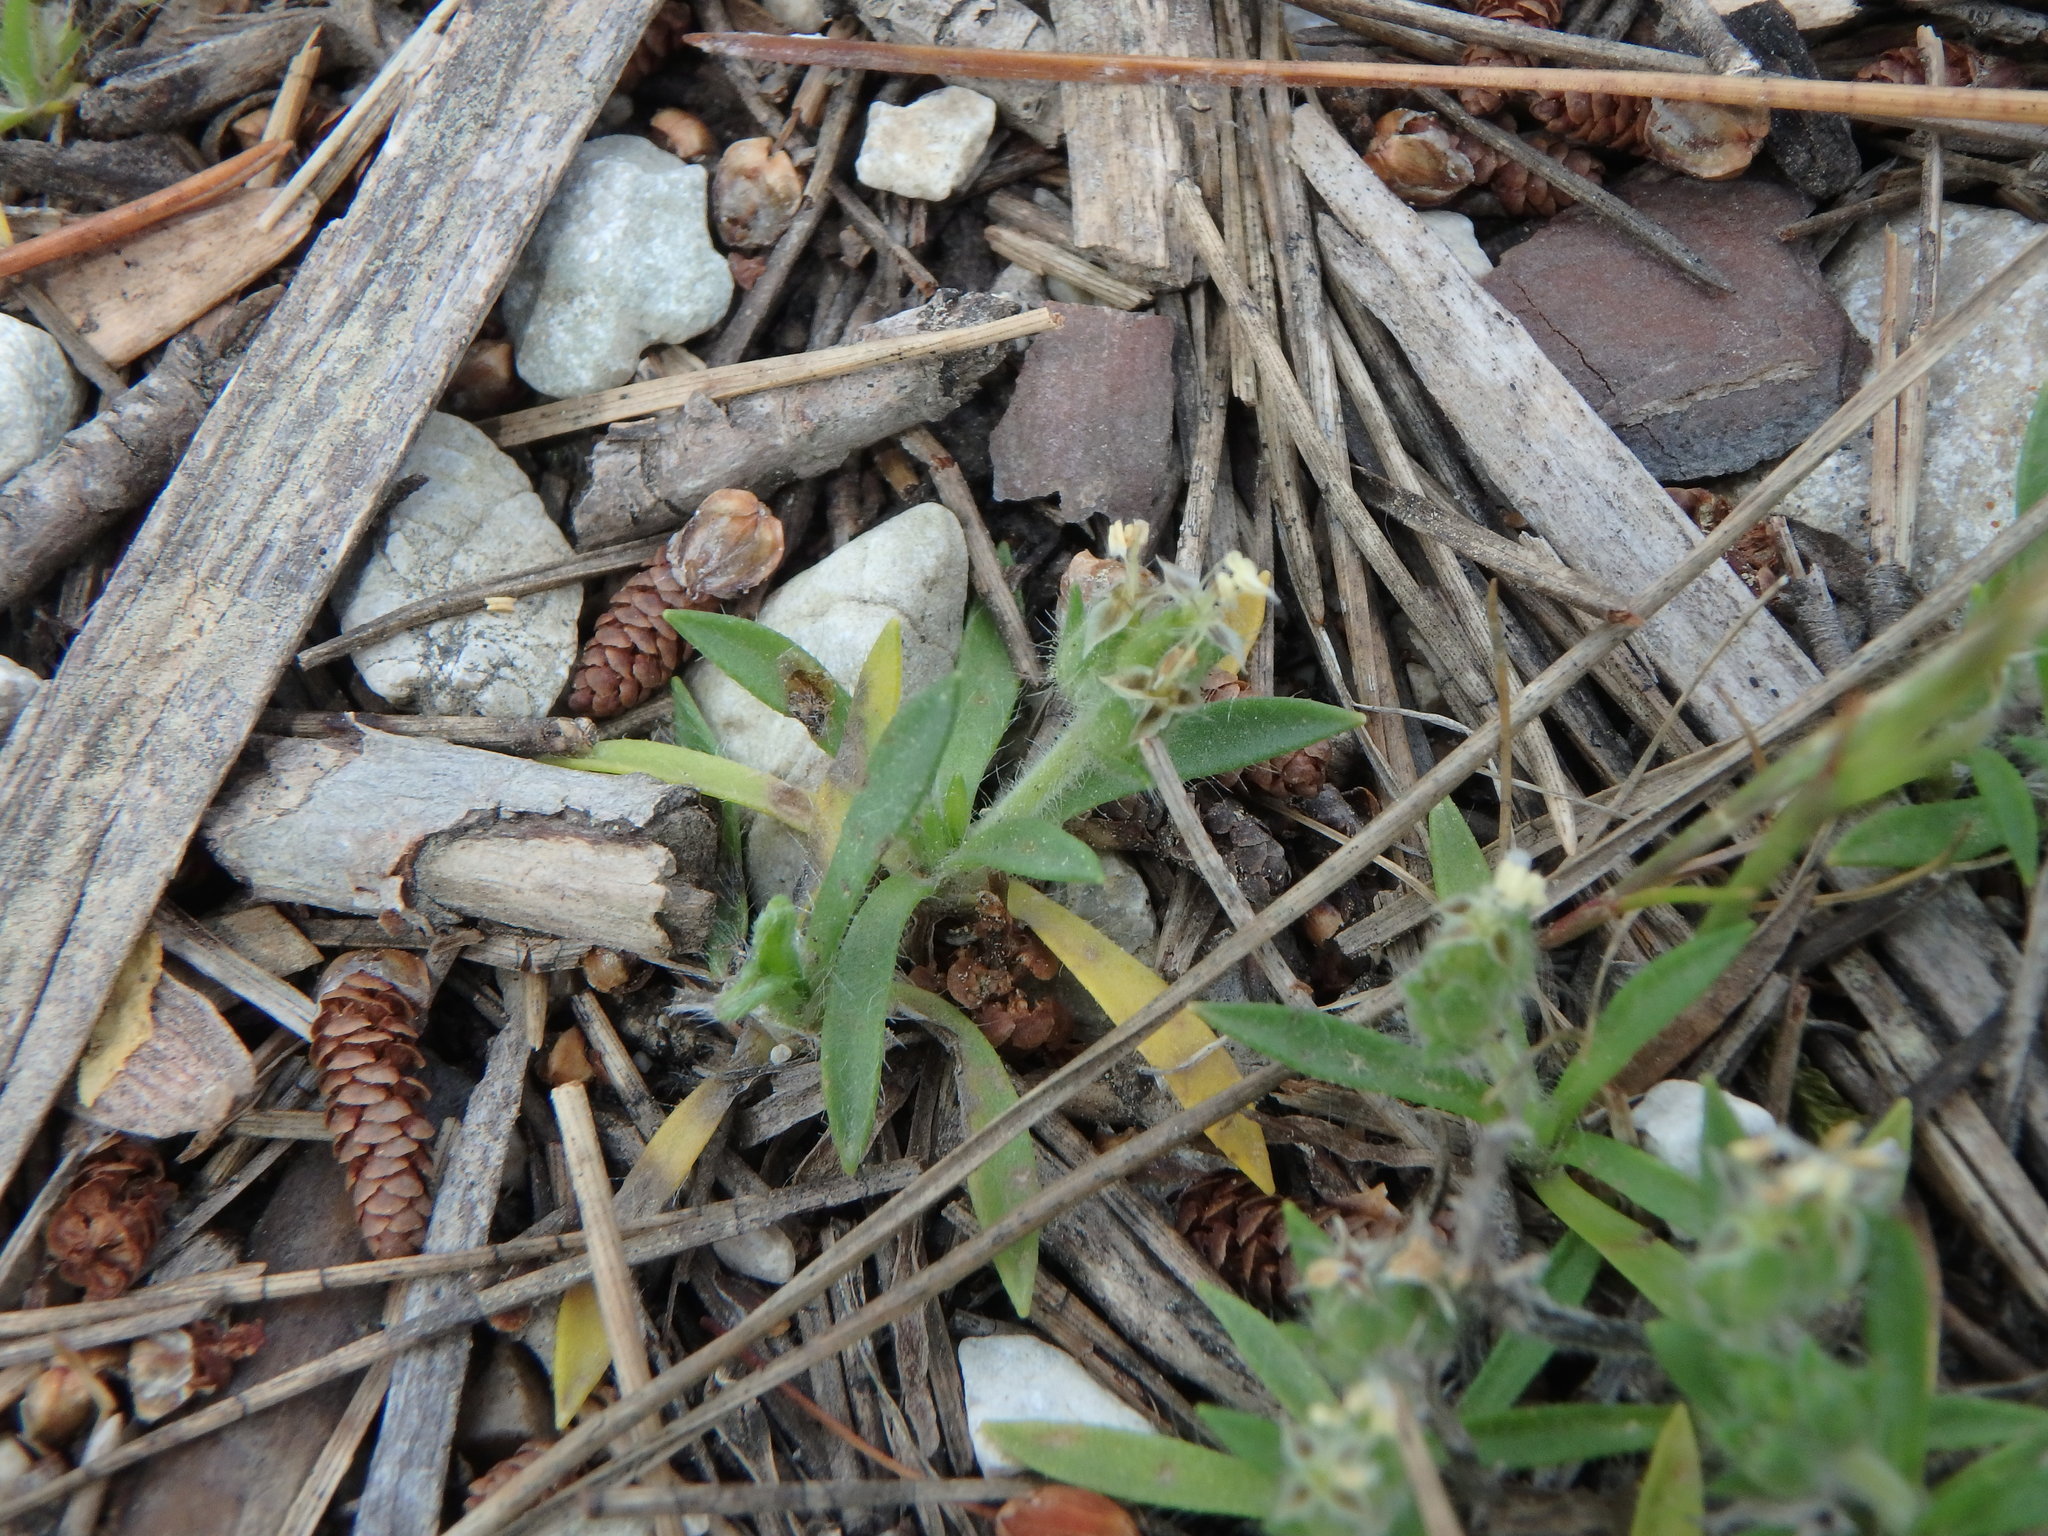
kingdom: Plantae
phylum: Tracheophyta
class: Magnoliopsida
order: Lamiales
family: Plantaginaceae
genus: Plantago
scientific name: Plantago bellardii
